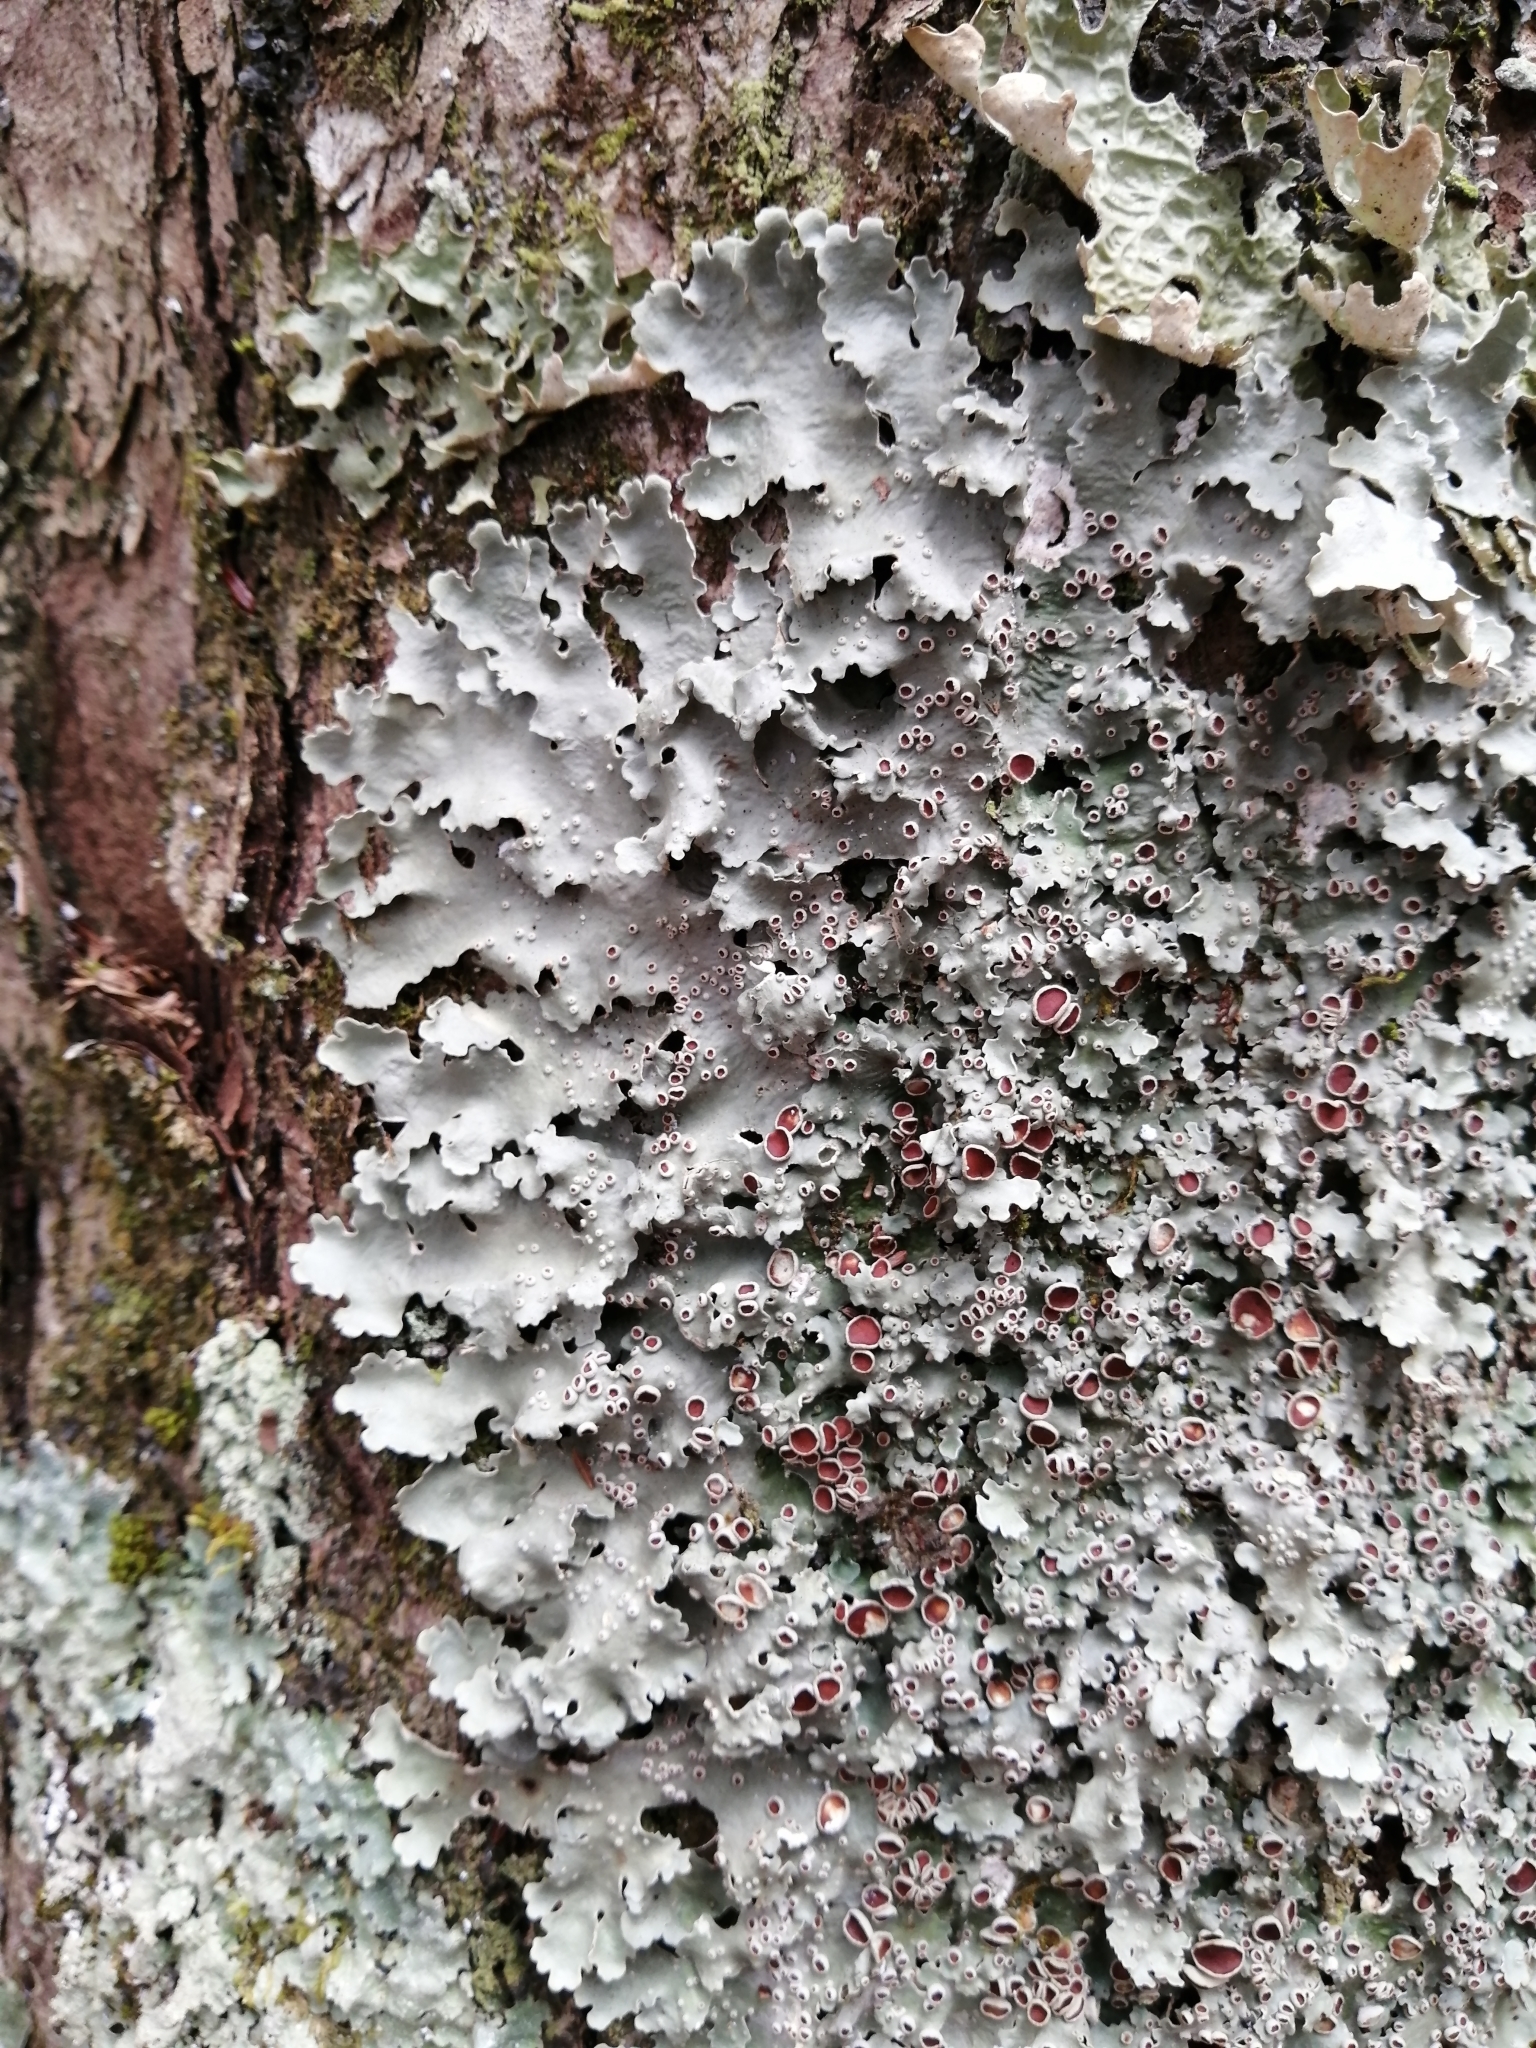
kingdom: Fungi
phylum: Ascomycota
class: Lecanoromycetes
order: Peltigerales
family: Lobariaceae
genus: Ricasolia
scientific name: Ricasolia quercizans
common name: Smooth lungwort
